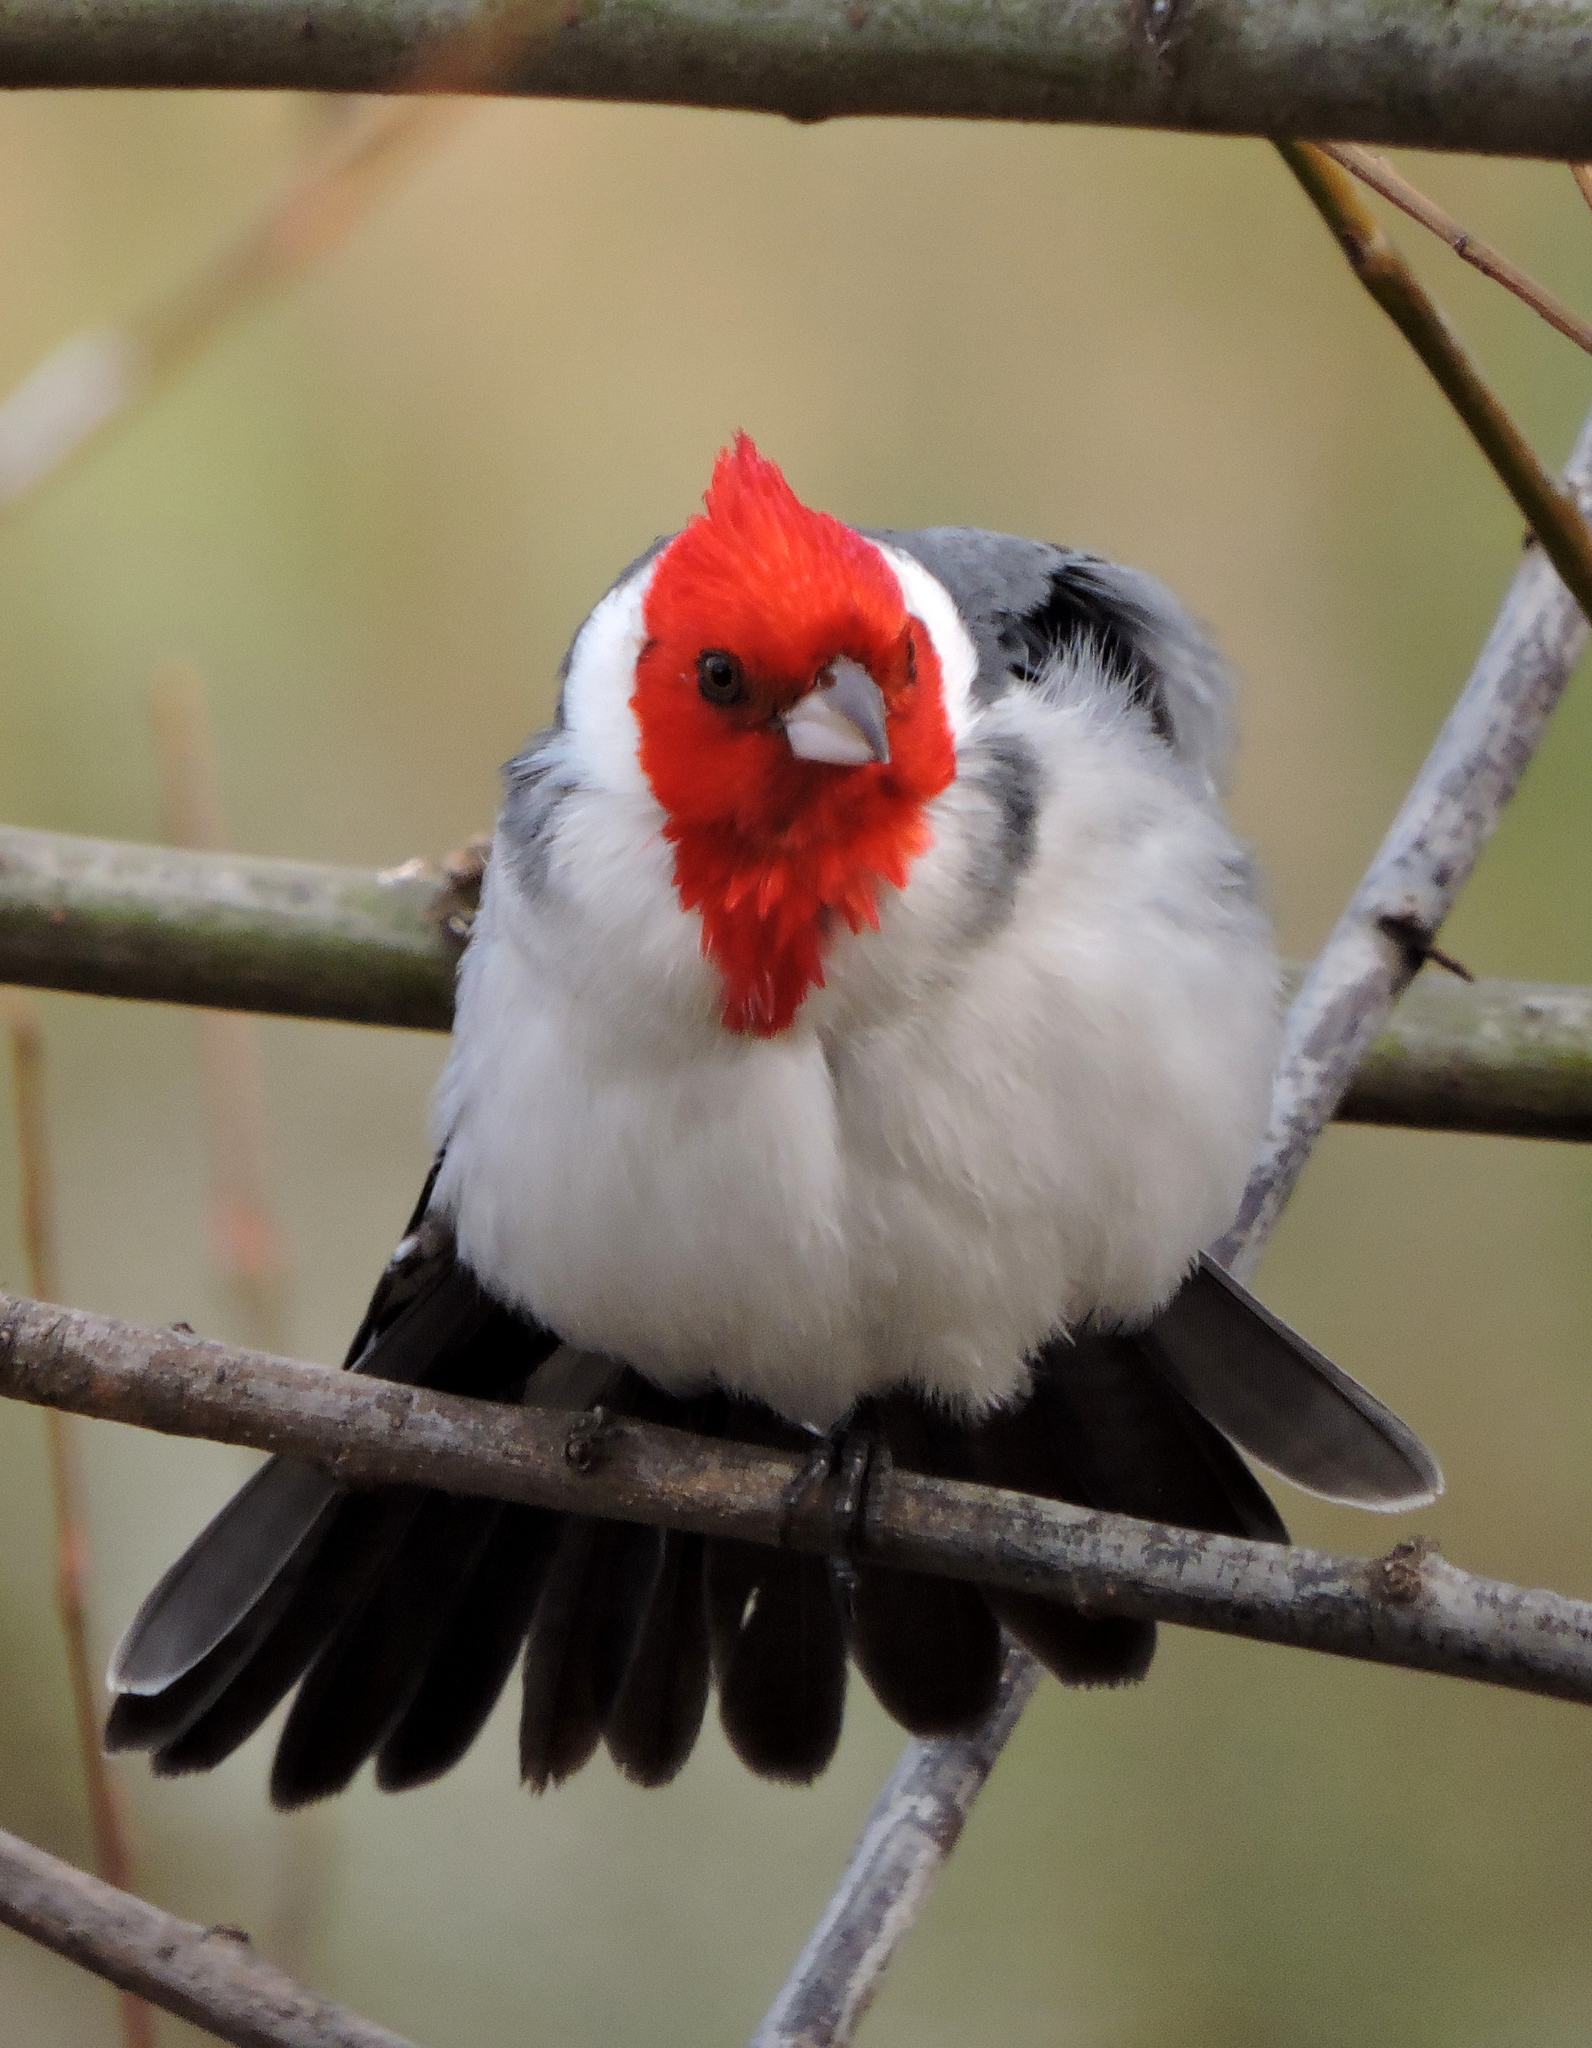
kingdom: Animalia
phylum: Chordata
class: Aves
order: Passeriformes
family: Thraupidae
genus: Paroaria
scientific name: Paroaria coronata
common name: Red-crested cardinal
